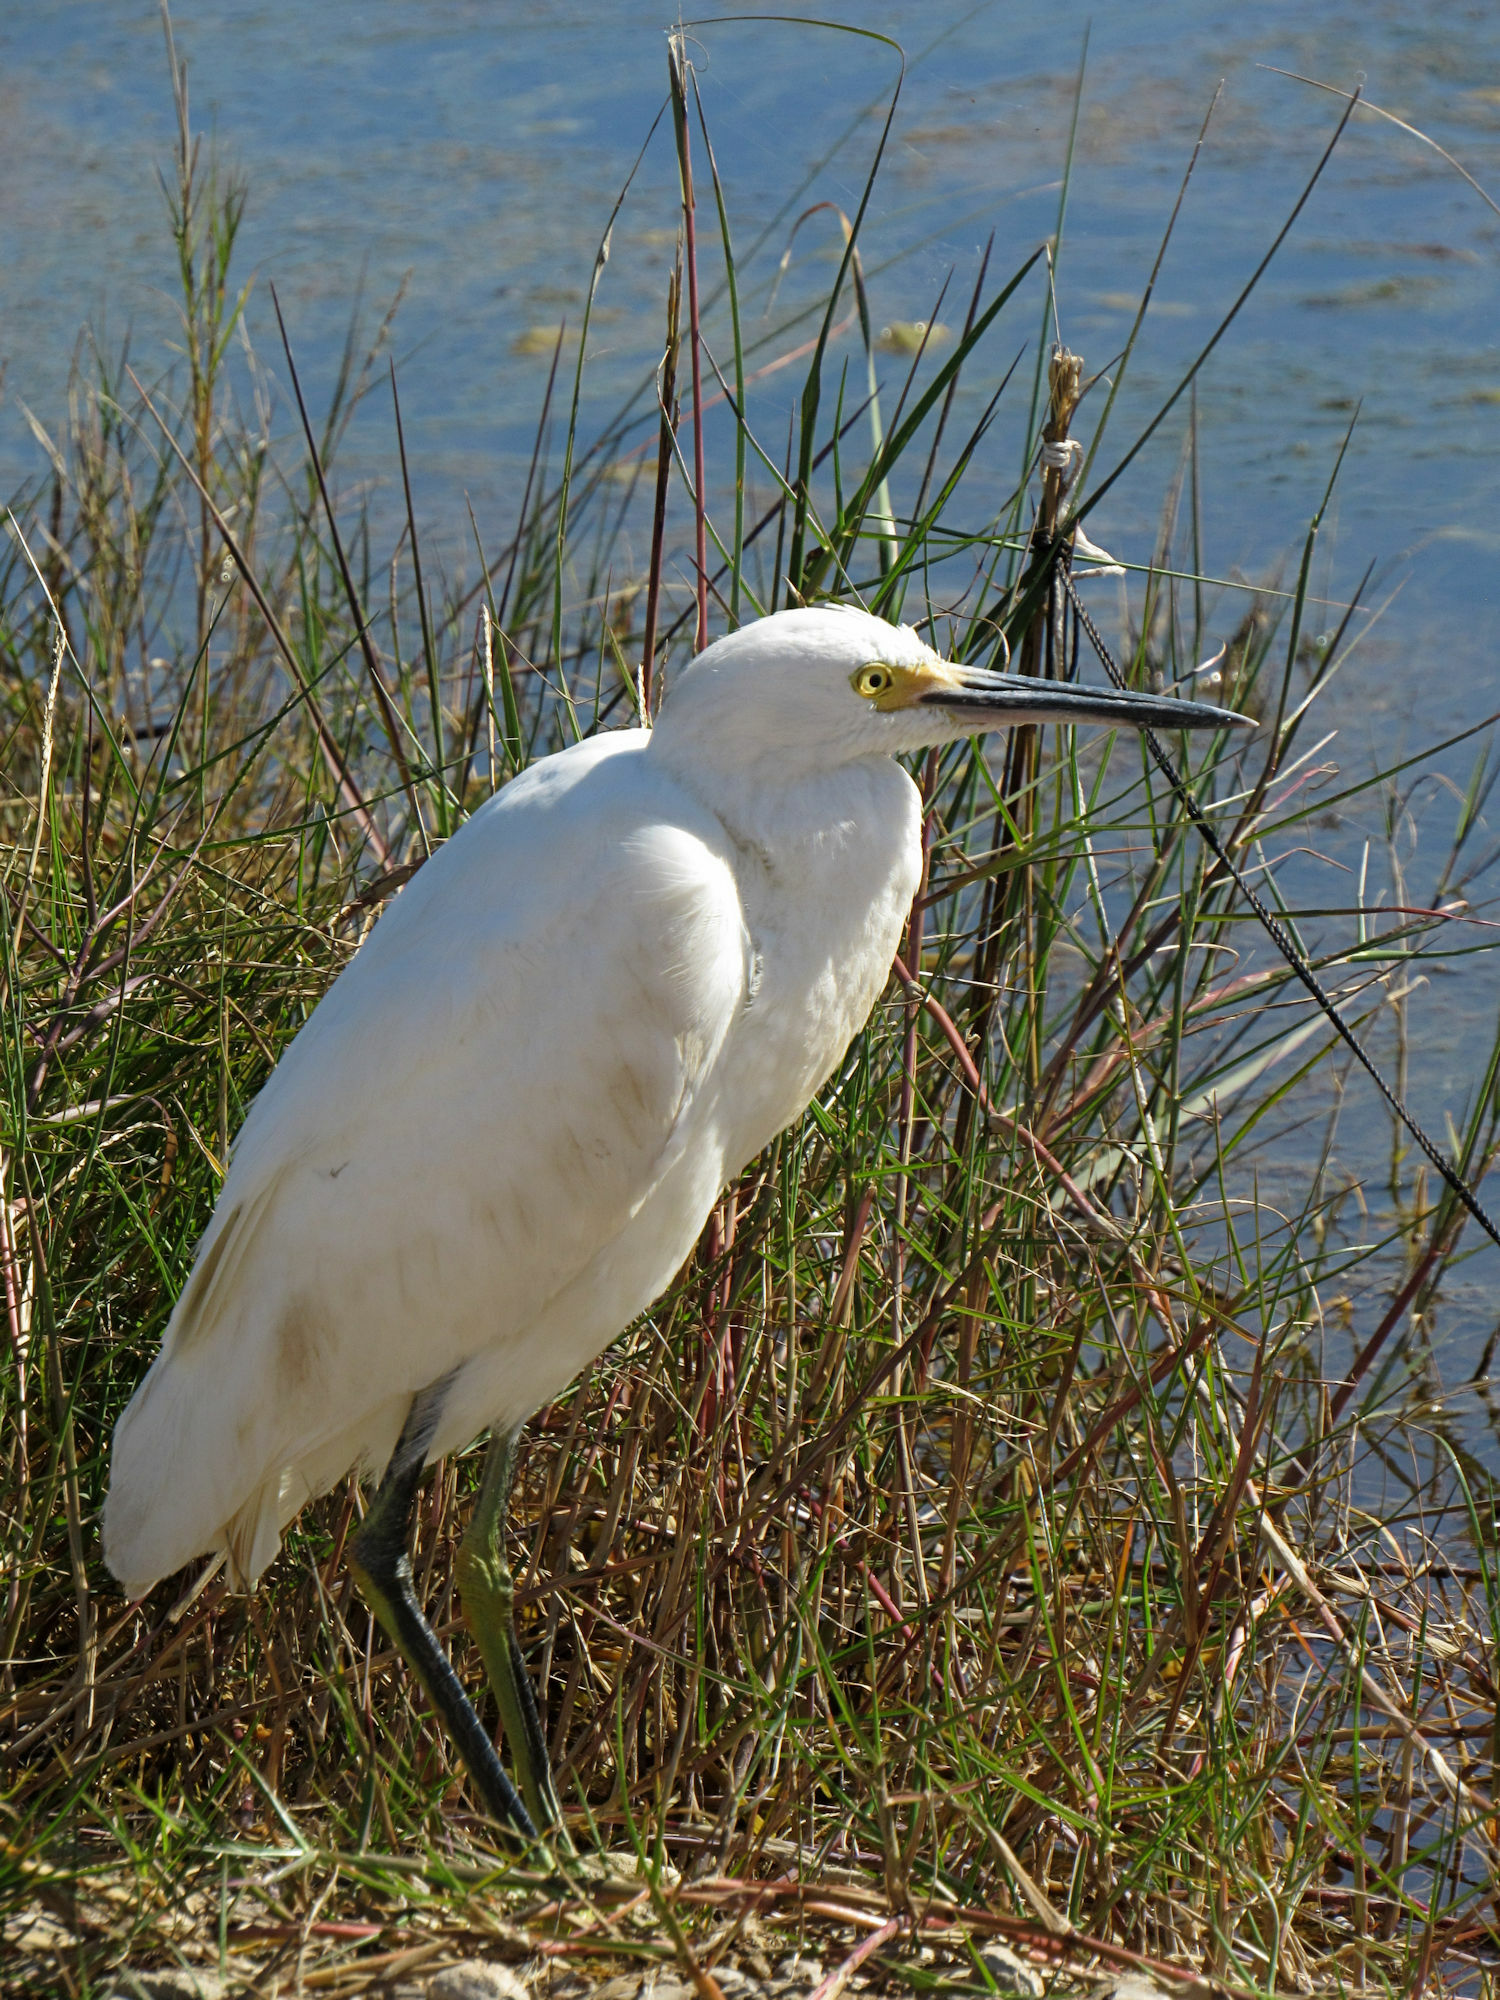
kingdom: Animalia
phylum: Chordata
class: Aves
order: Pelecaniformes
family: Ardeidae
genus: Egretta
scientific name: Egretta thula
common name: Snowy egret
